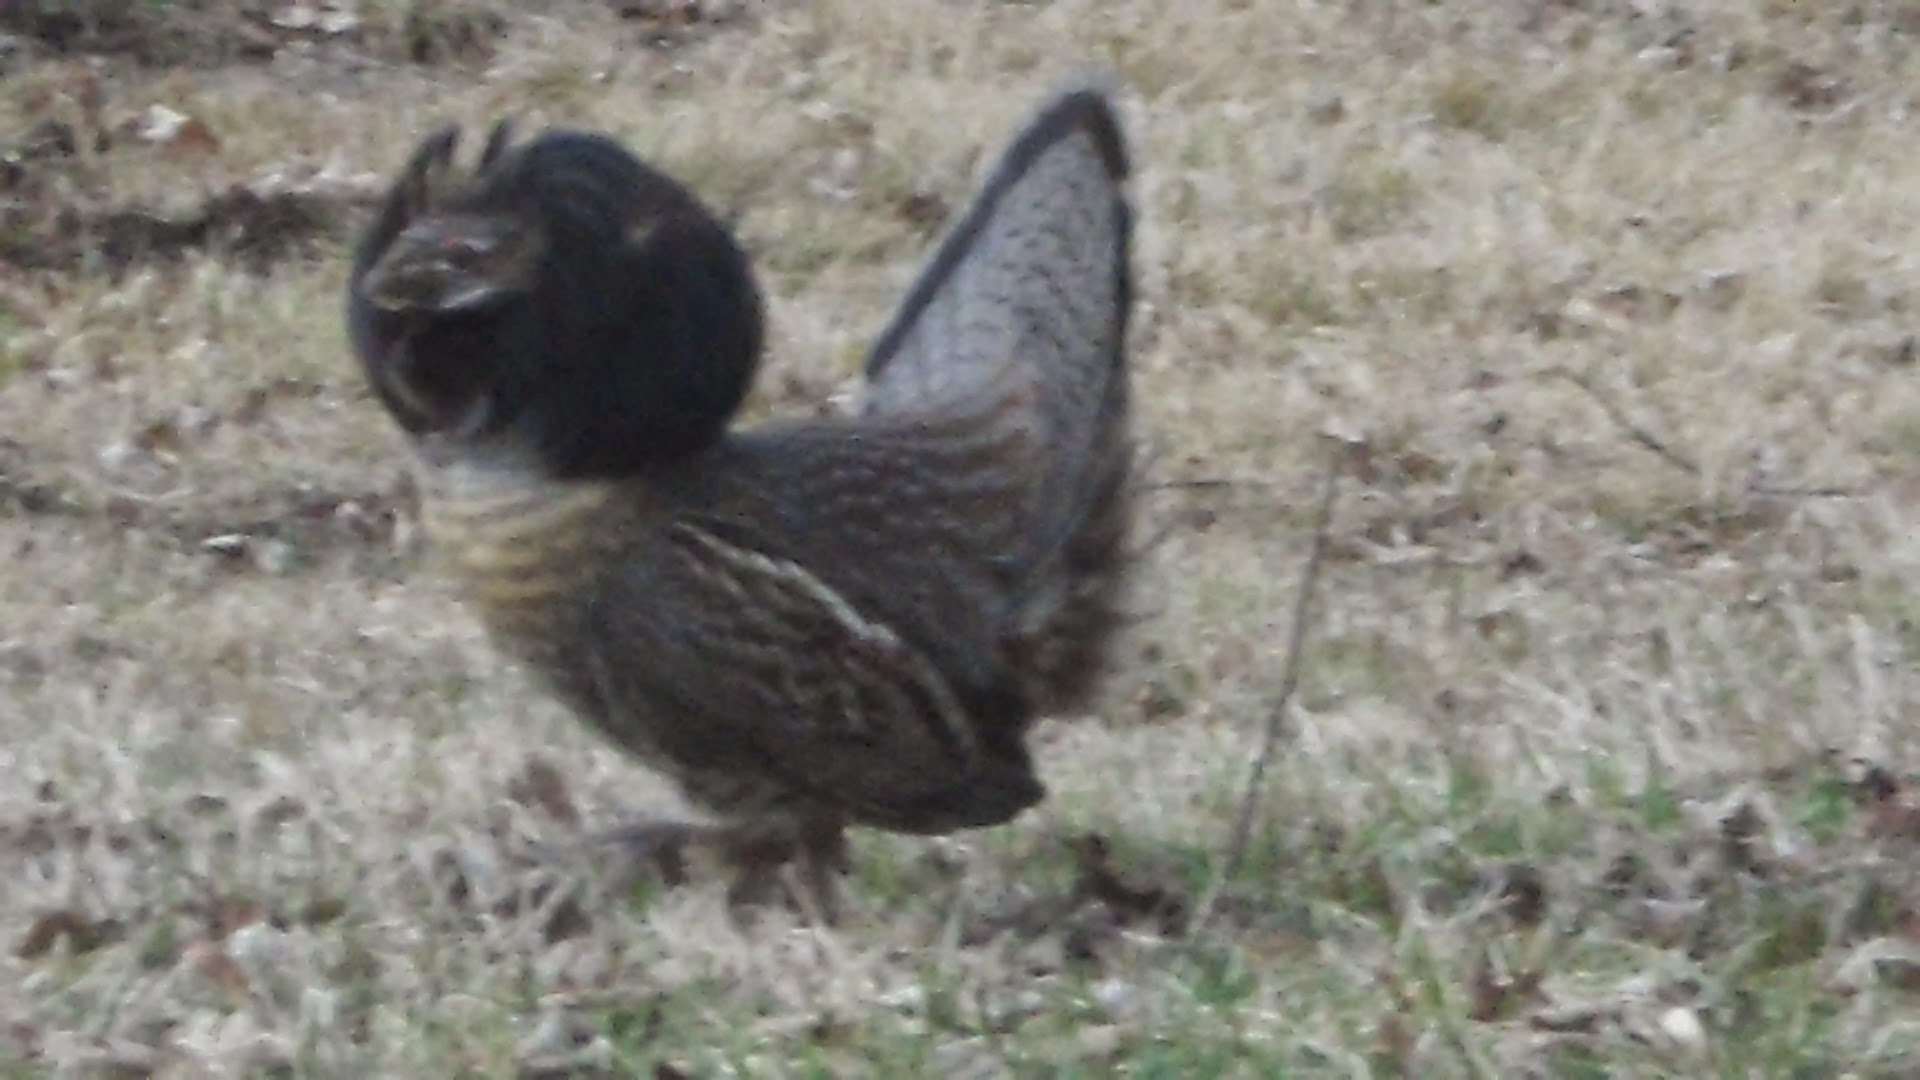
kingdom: Animalia
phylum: Chordata
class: Aves
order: Galliformes
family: Phasianidae
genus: Bonasa
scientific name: Bonasa umbellus
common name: Ruffed grouse
